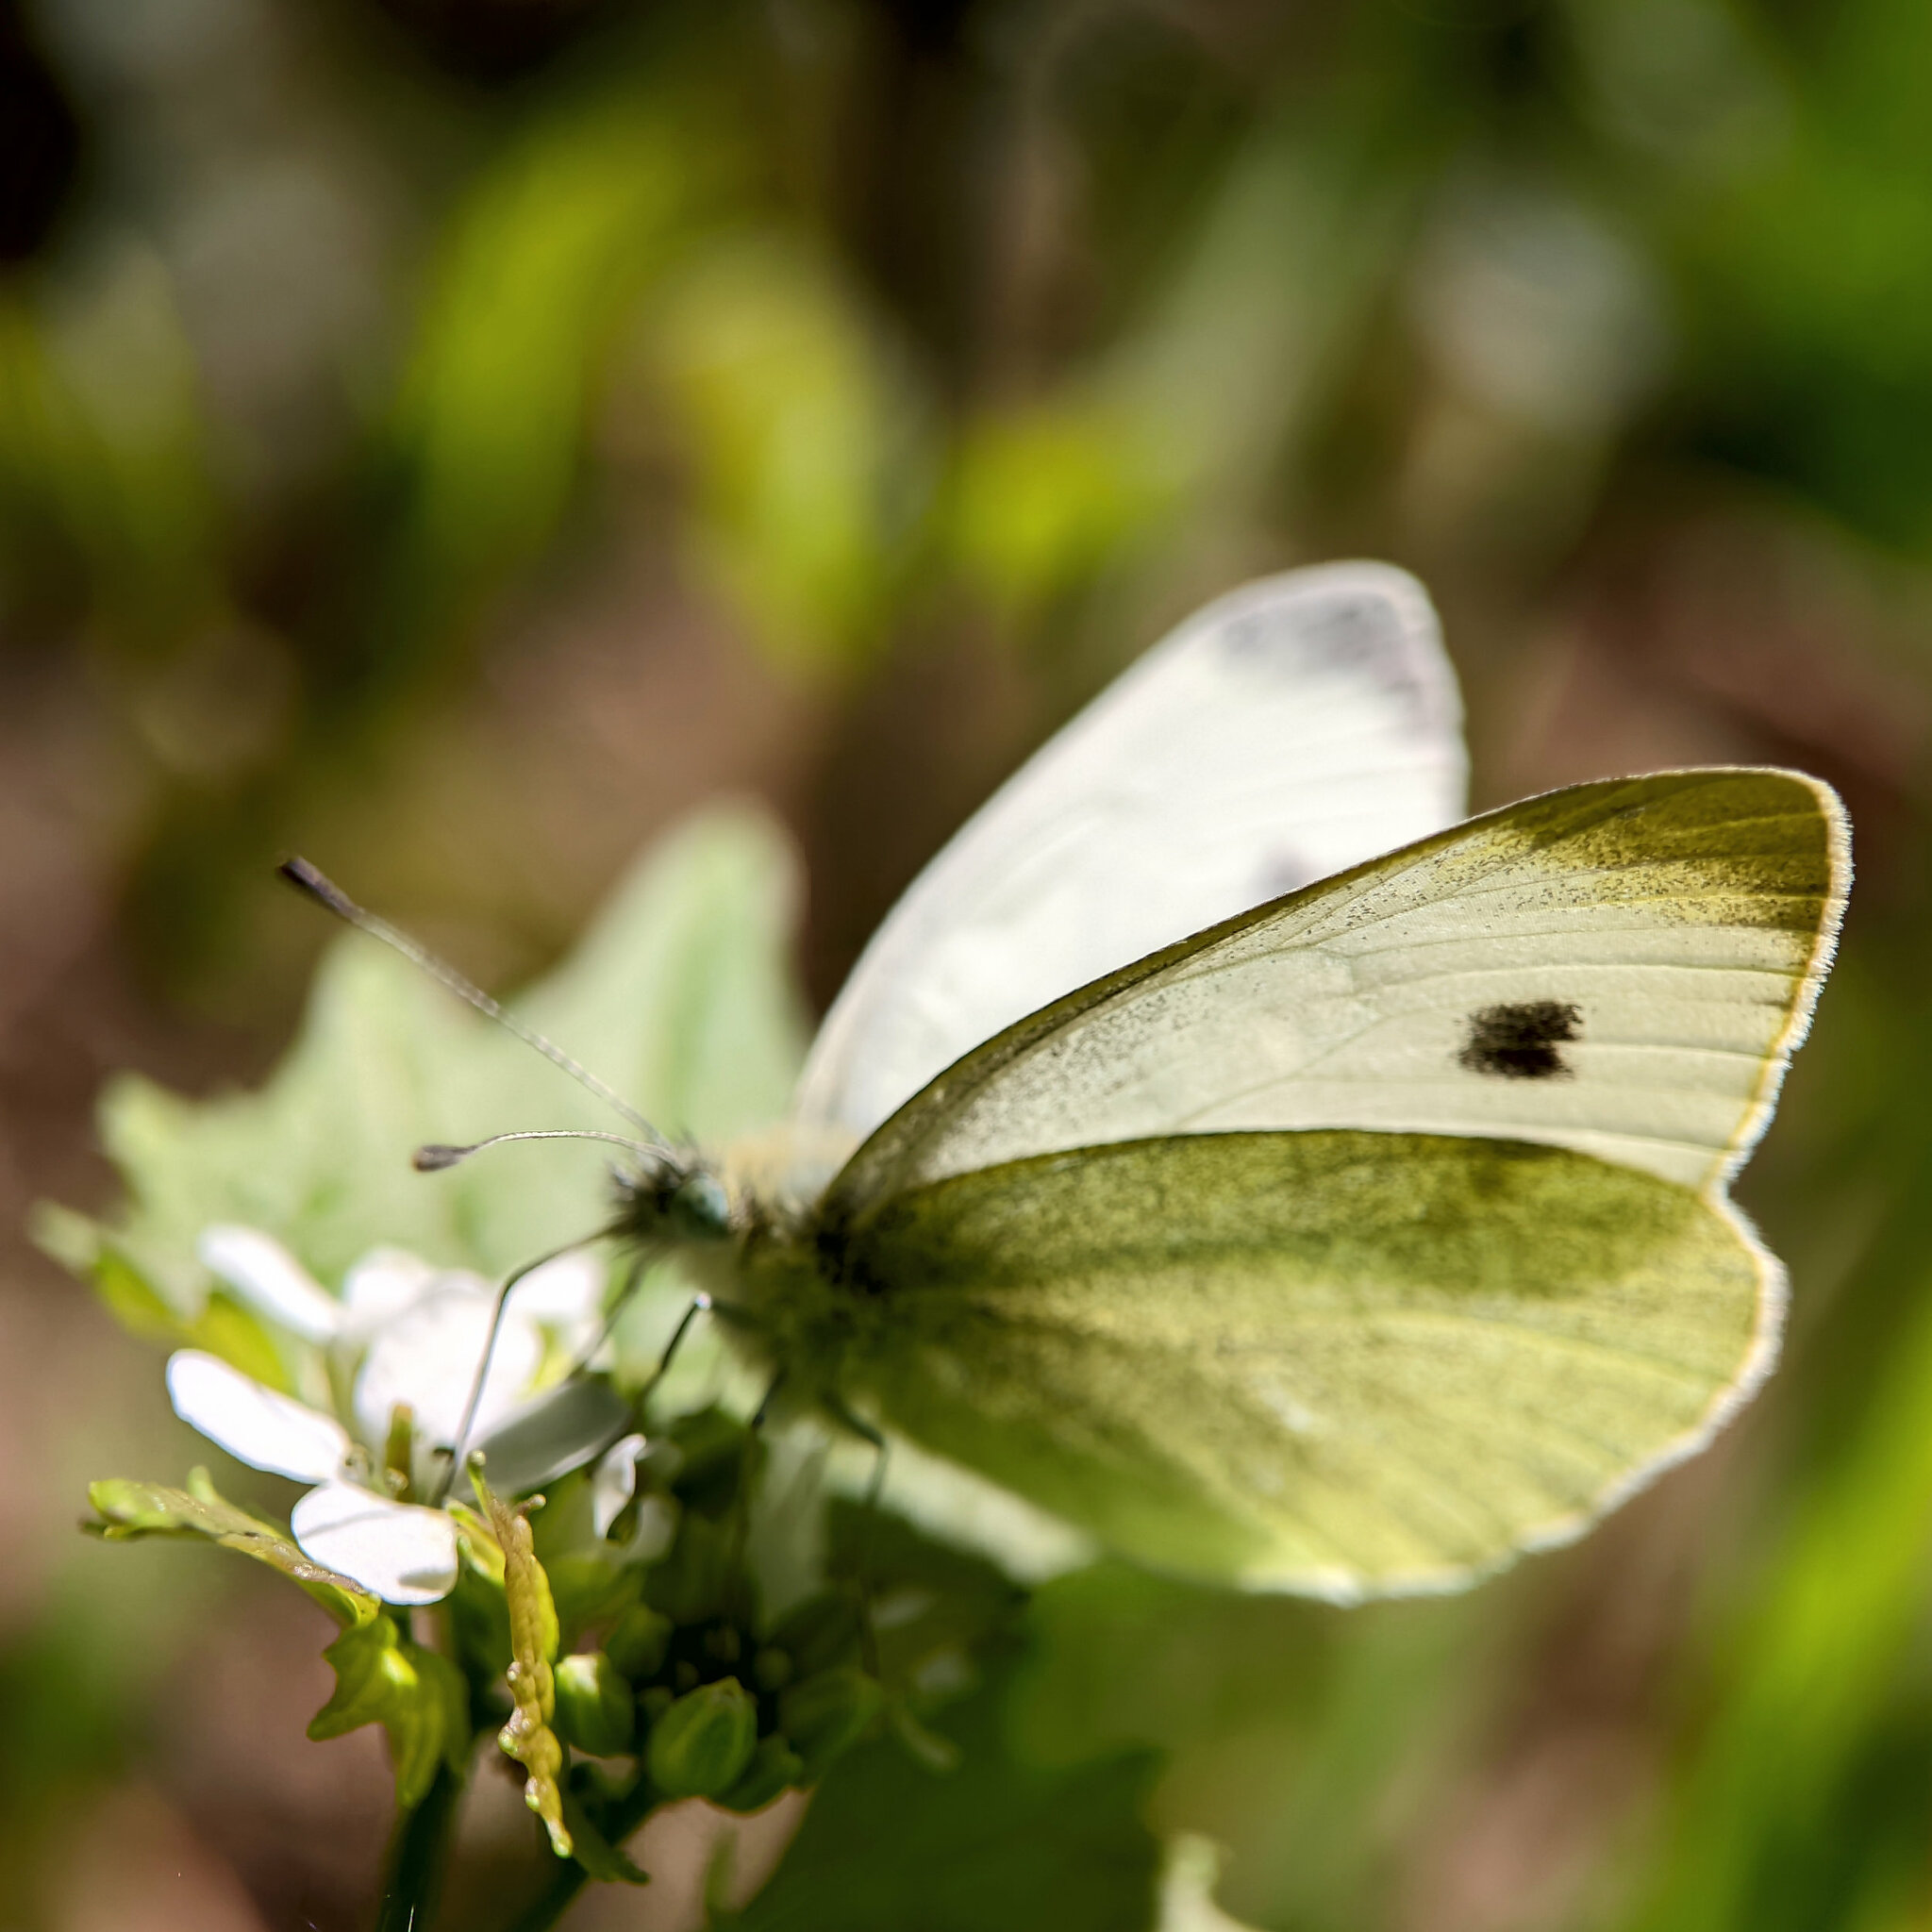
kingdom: Animalia
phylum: Arthropoda
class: Insecta
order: Lepidoptera
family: Pieridae
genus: Pieris
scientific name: Pieris mannii
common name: Southern small white
